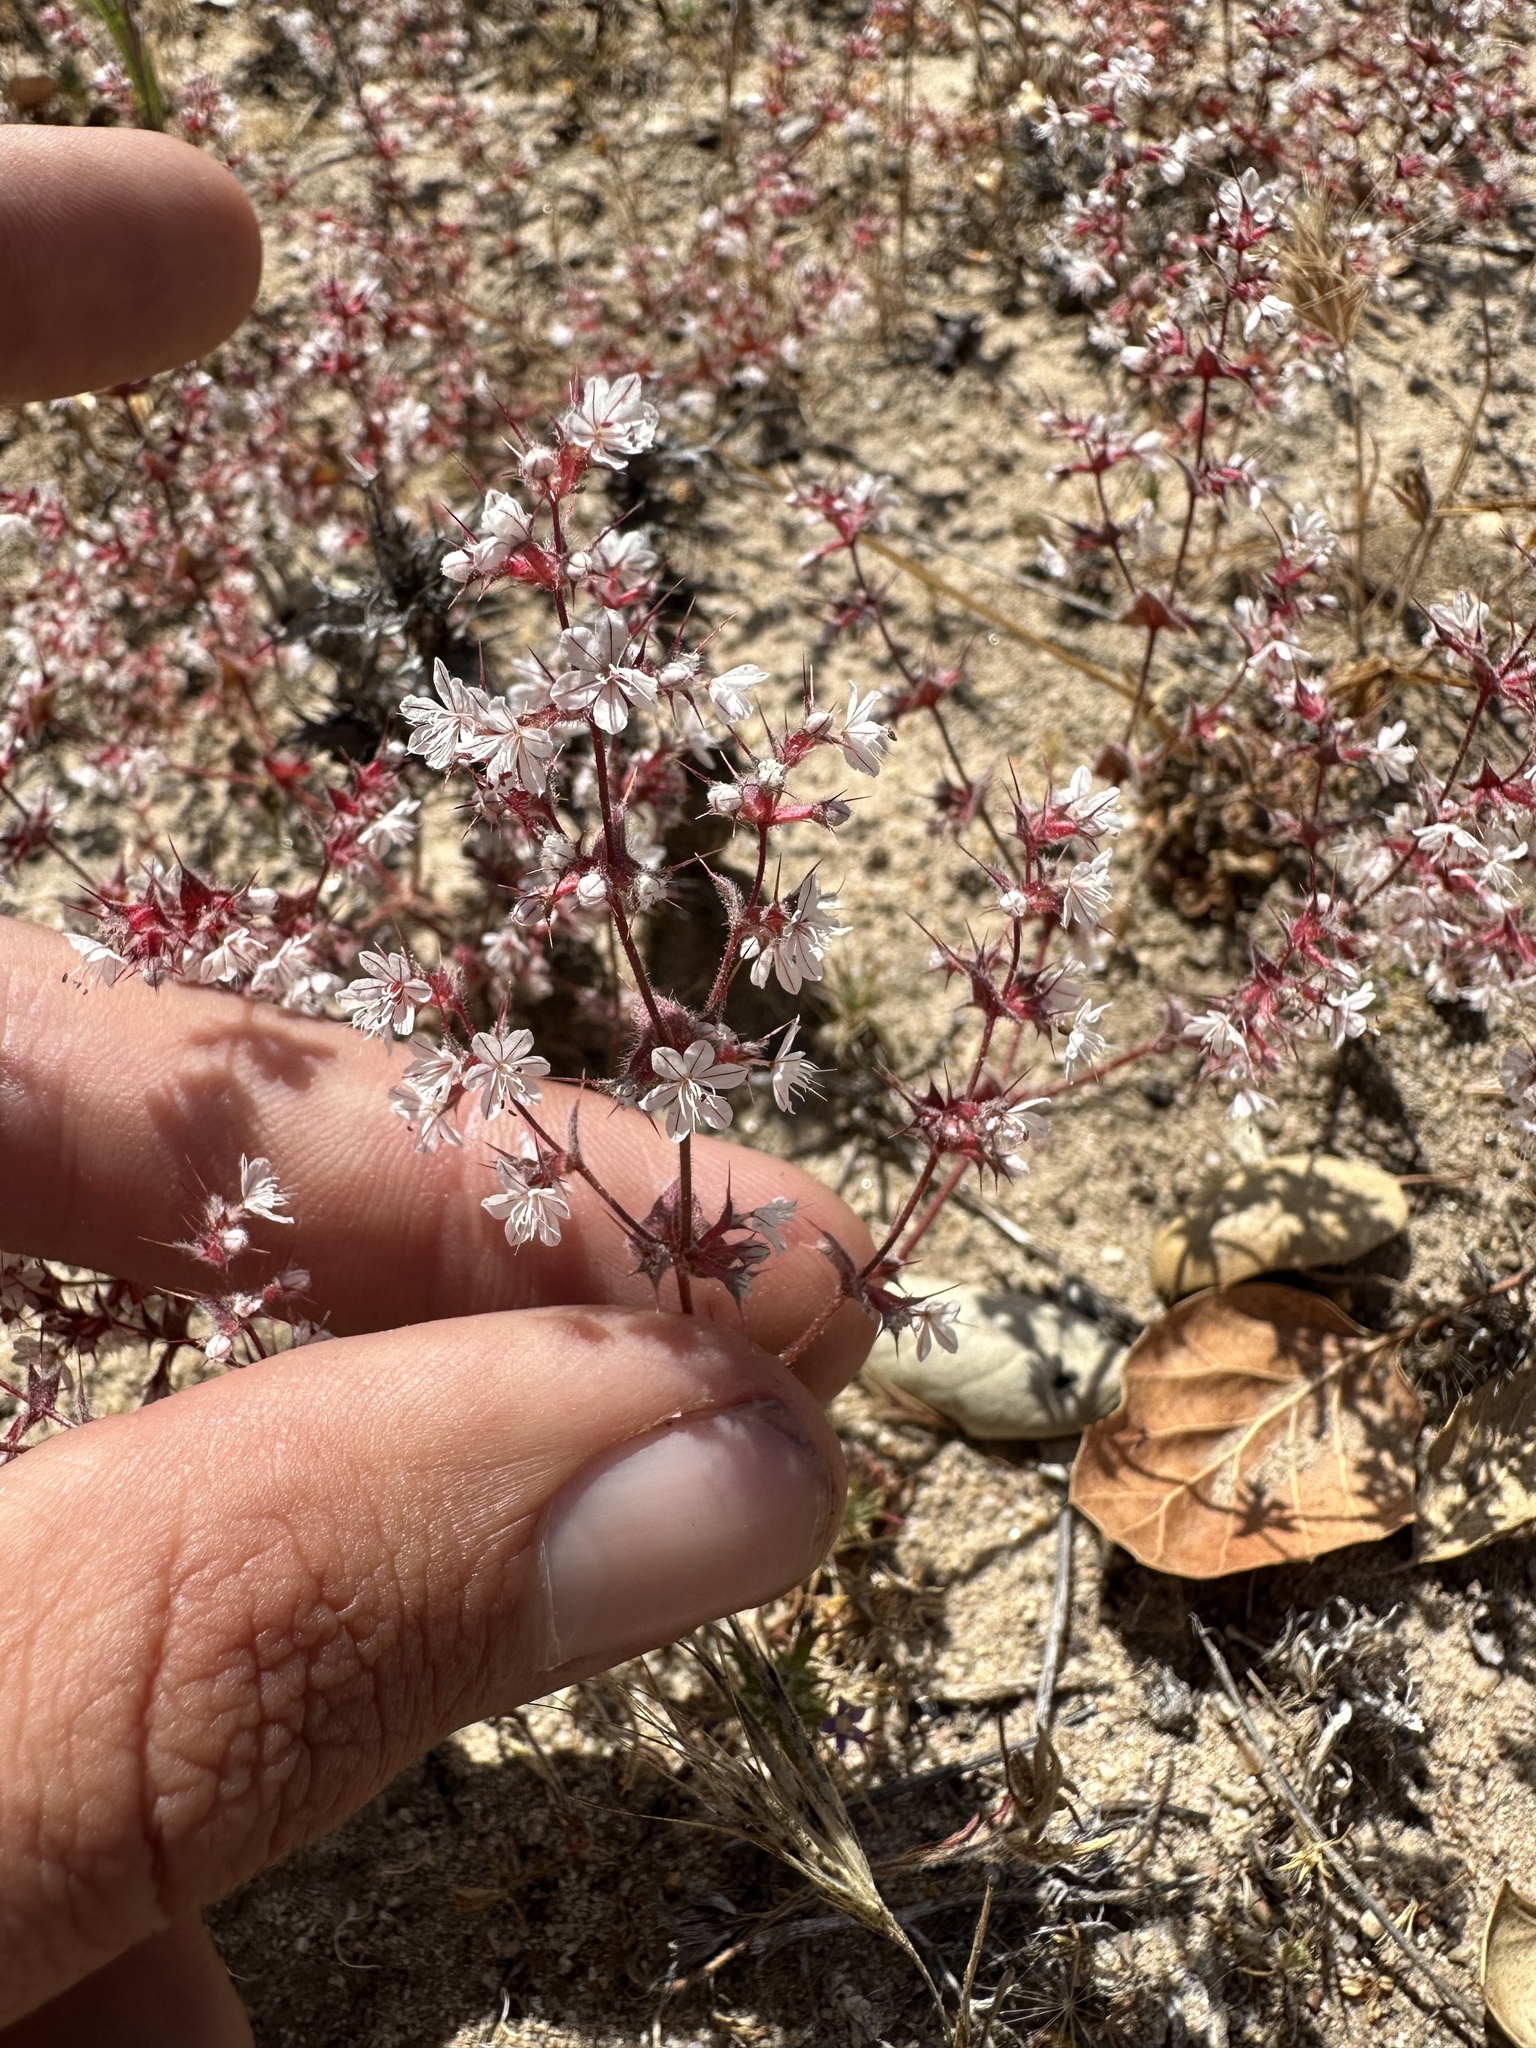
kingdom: Plantae
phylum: Tracheophyta
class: Magnoliopsida
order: Caryophyllales
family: Polygonaceae
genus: Mucronea
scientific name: Mucronea californica
